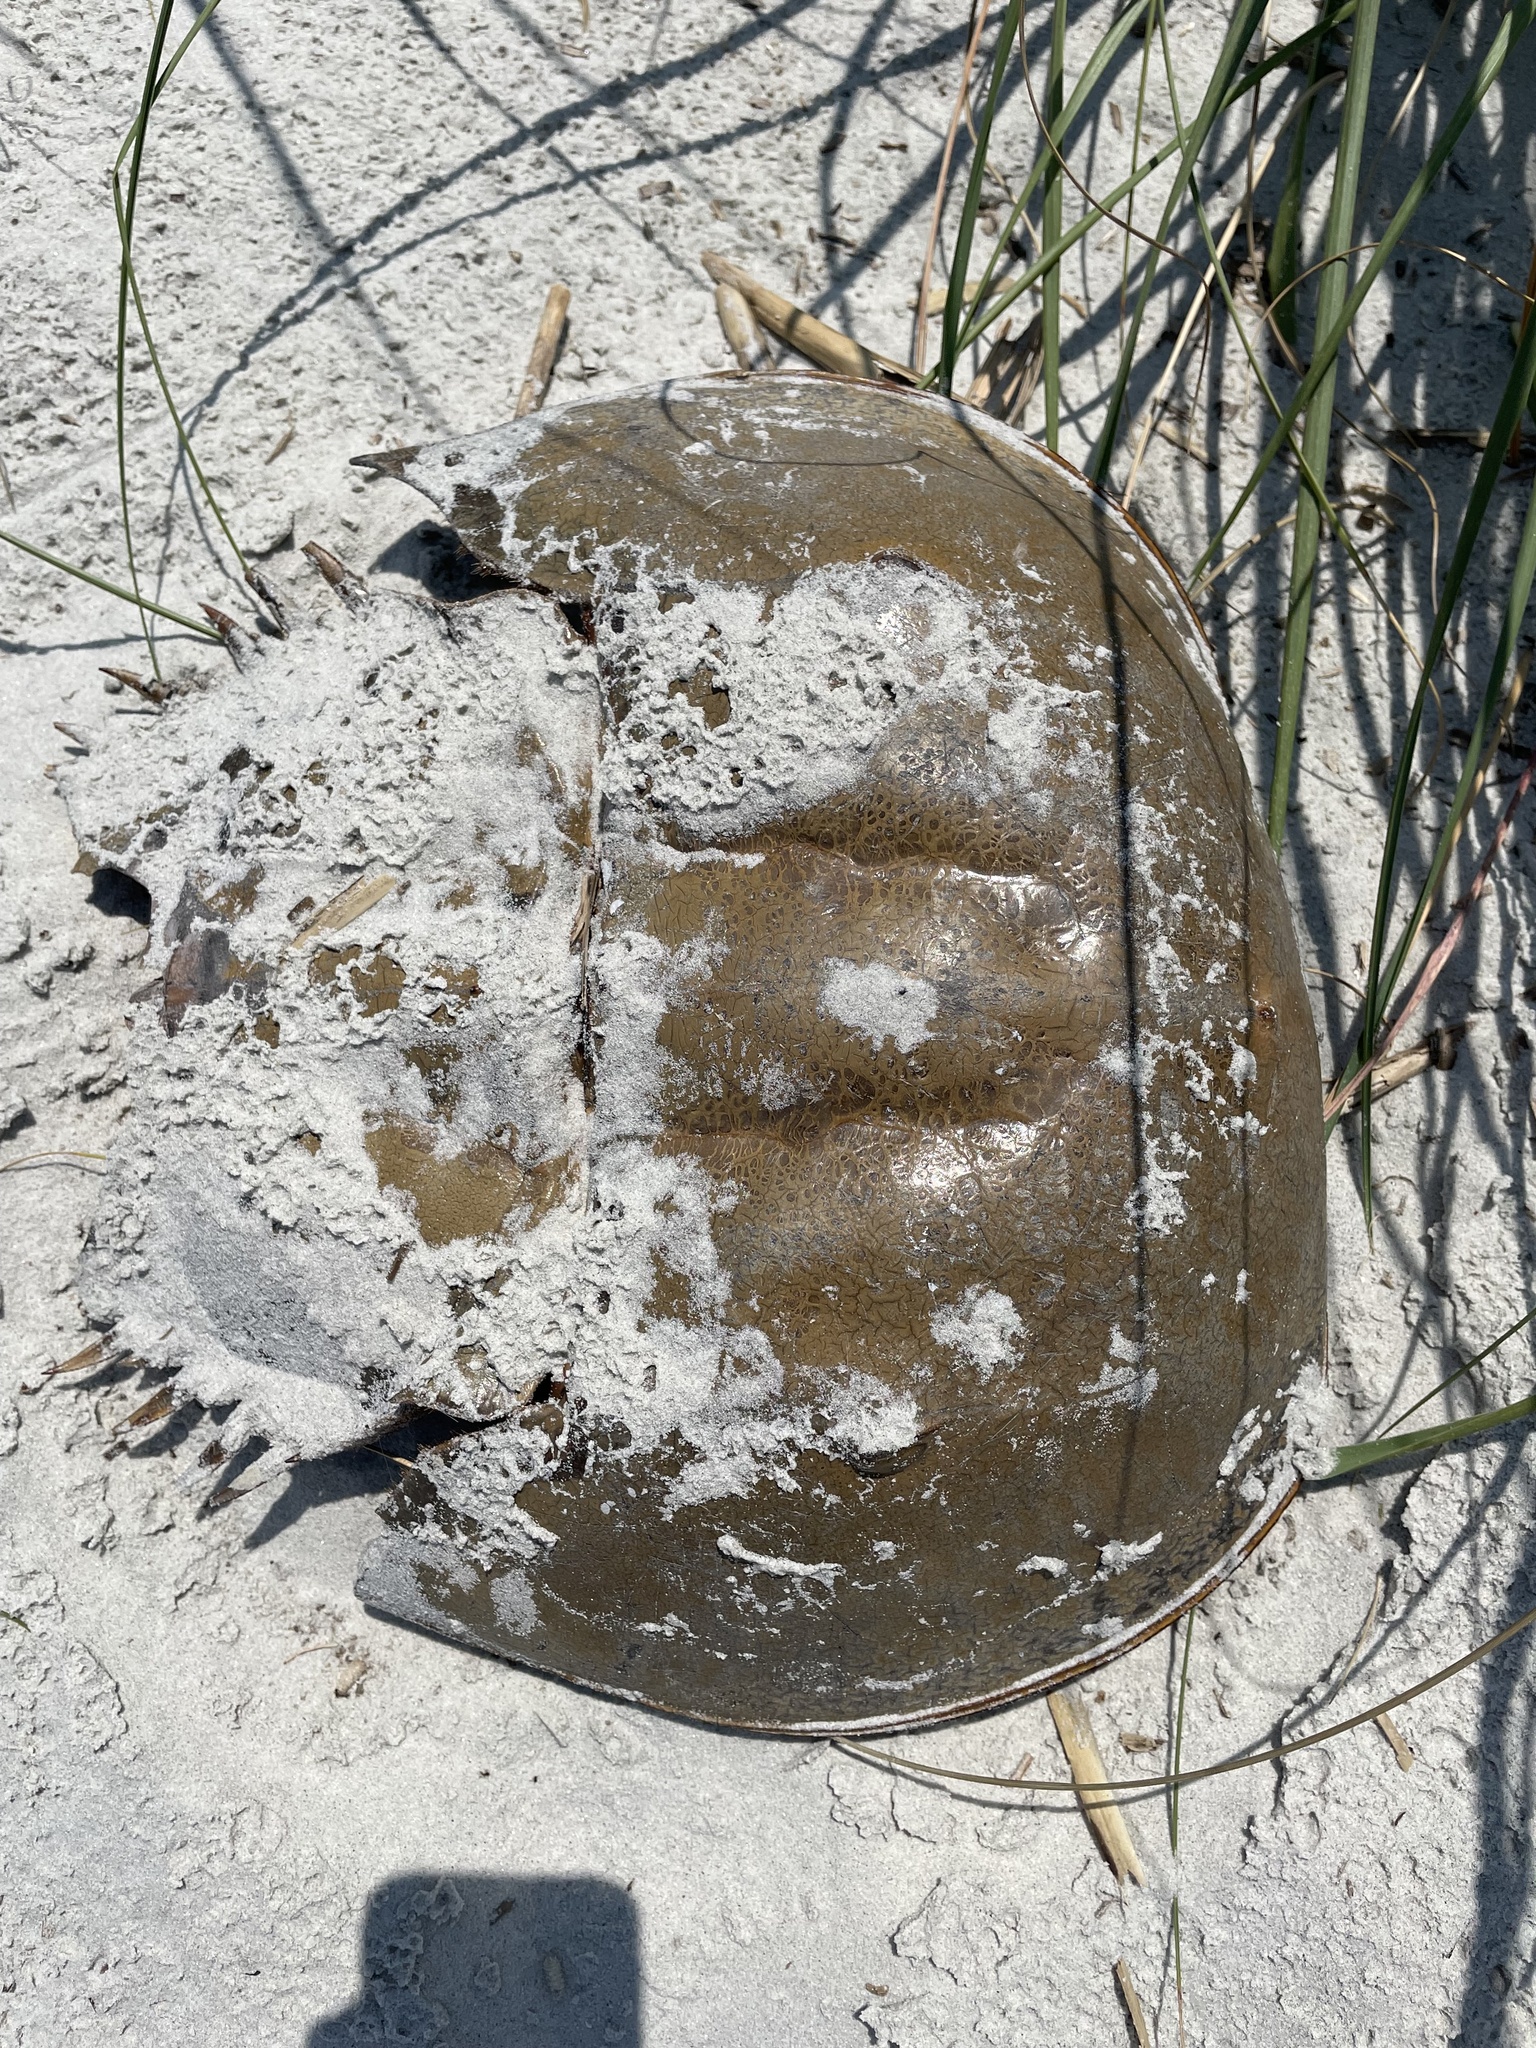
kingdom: Animalia
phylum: Arthropoda
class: Merostomata
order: Xiphosurida
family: Limulidae
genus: Limulus
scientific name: Limulus polyphemus
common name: Horseshoe crab
